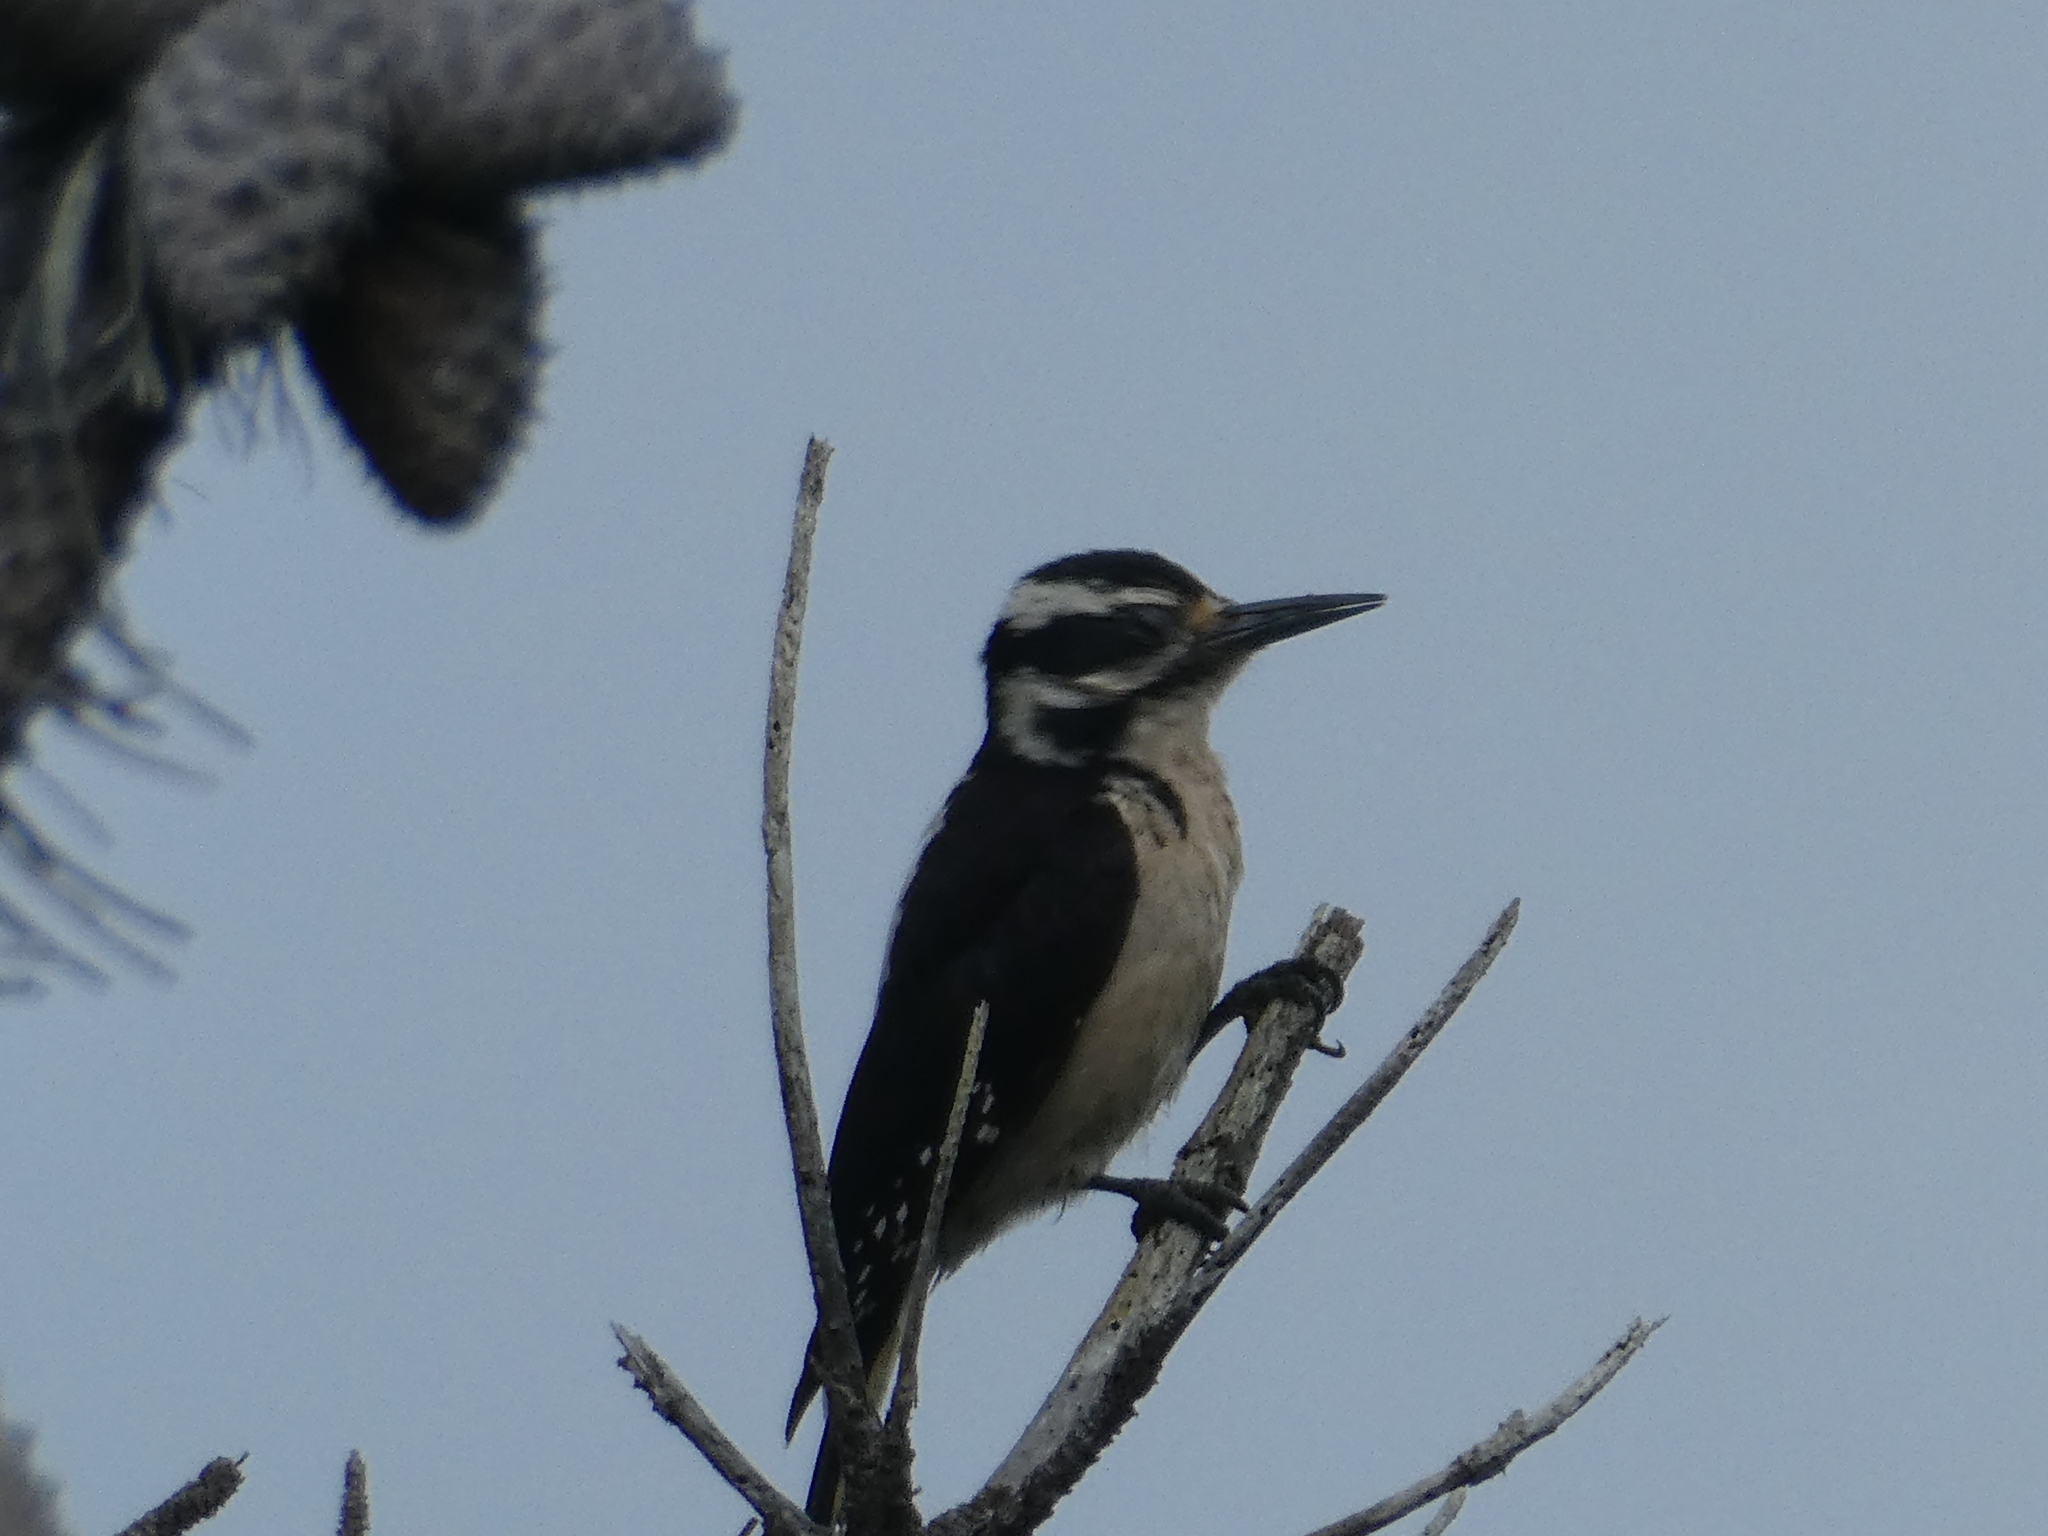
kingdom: Animalia
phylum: Chordata
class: Aves
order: Piciformes
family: Picidae
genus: Leuconotopicus
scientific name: Leuconotopicus villosus
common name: Hairy woodpecker
